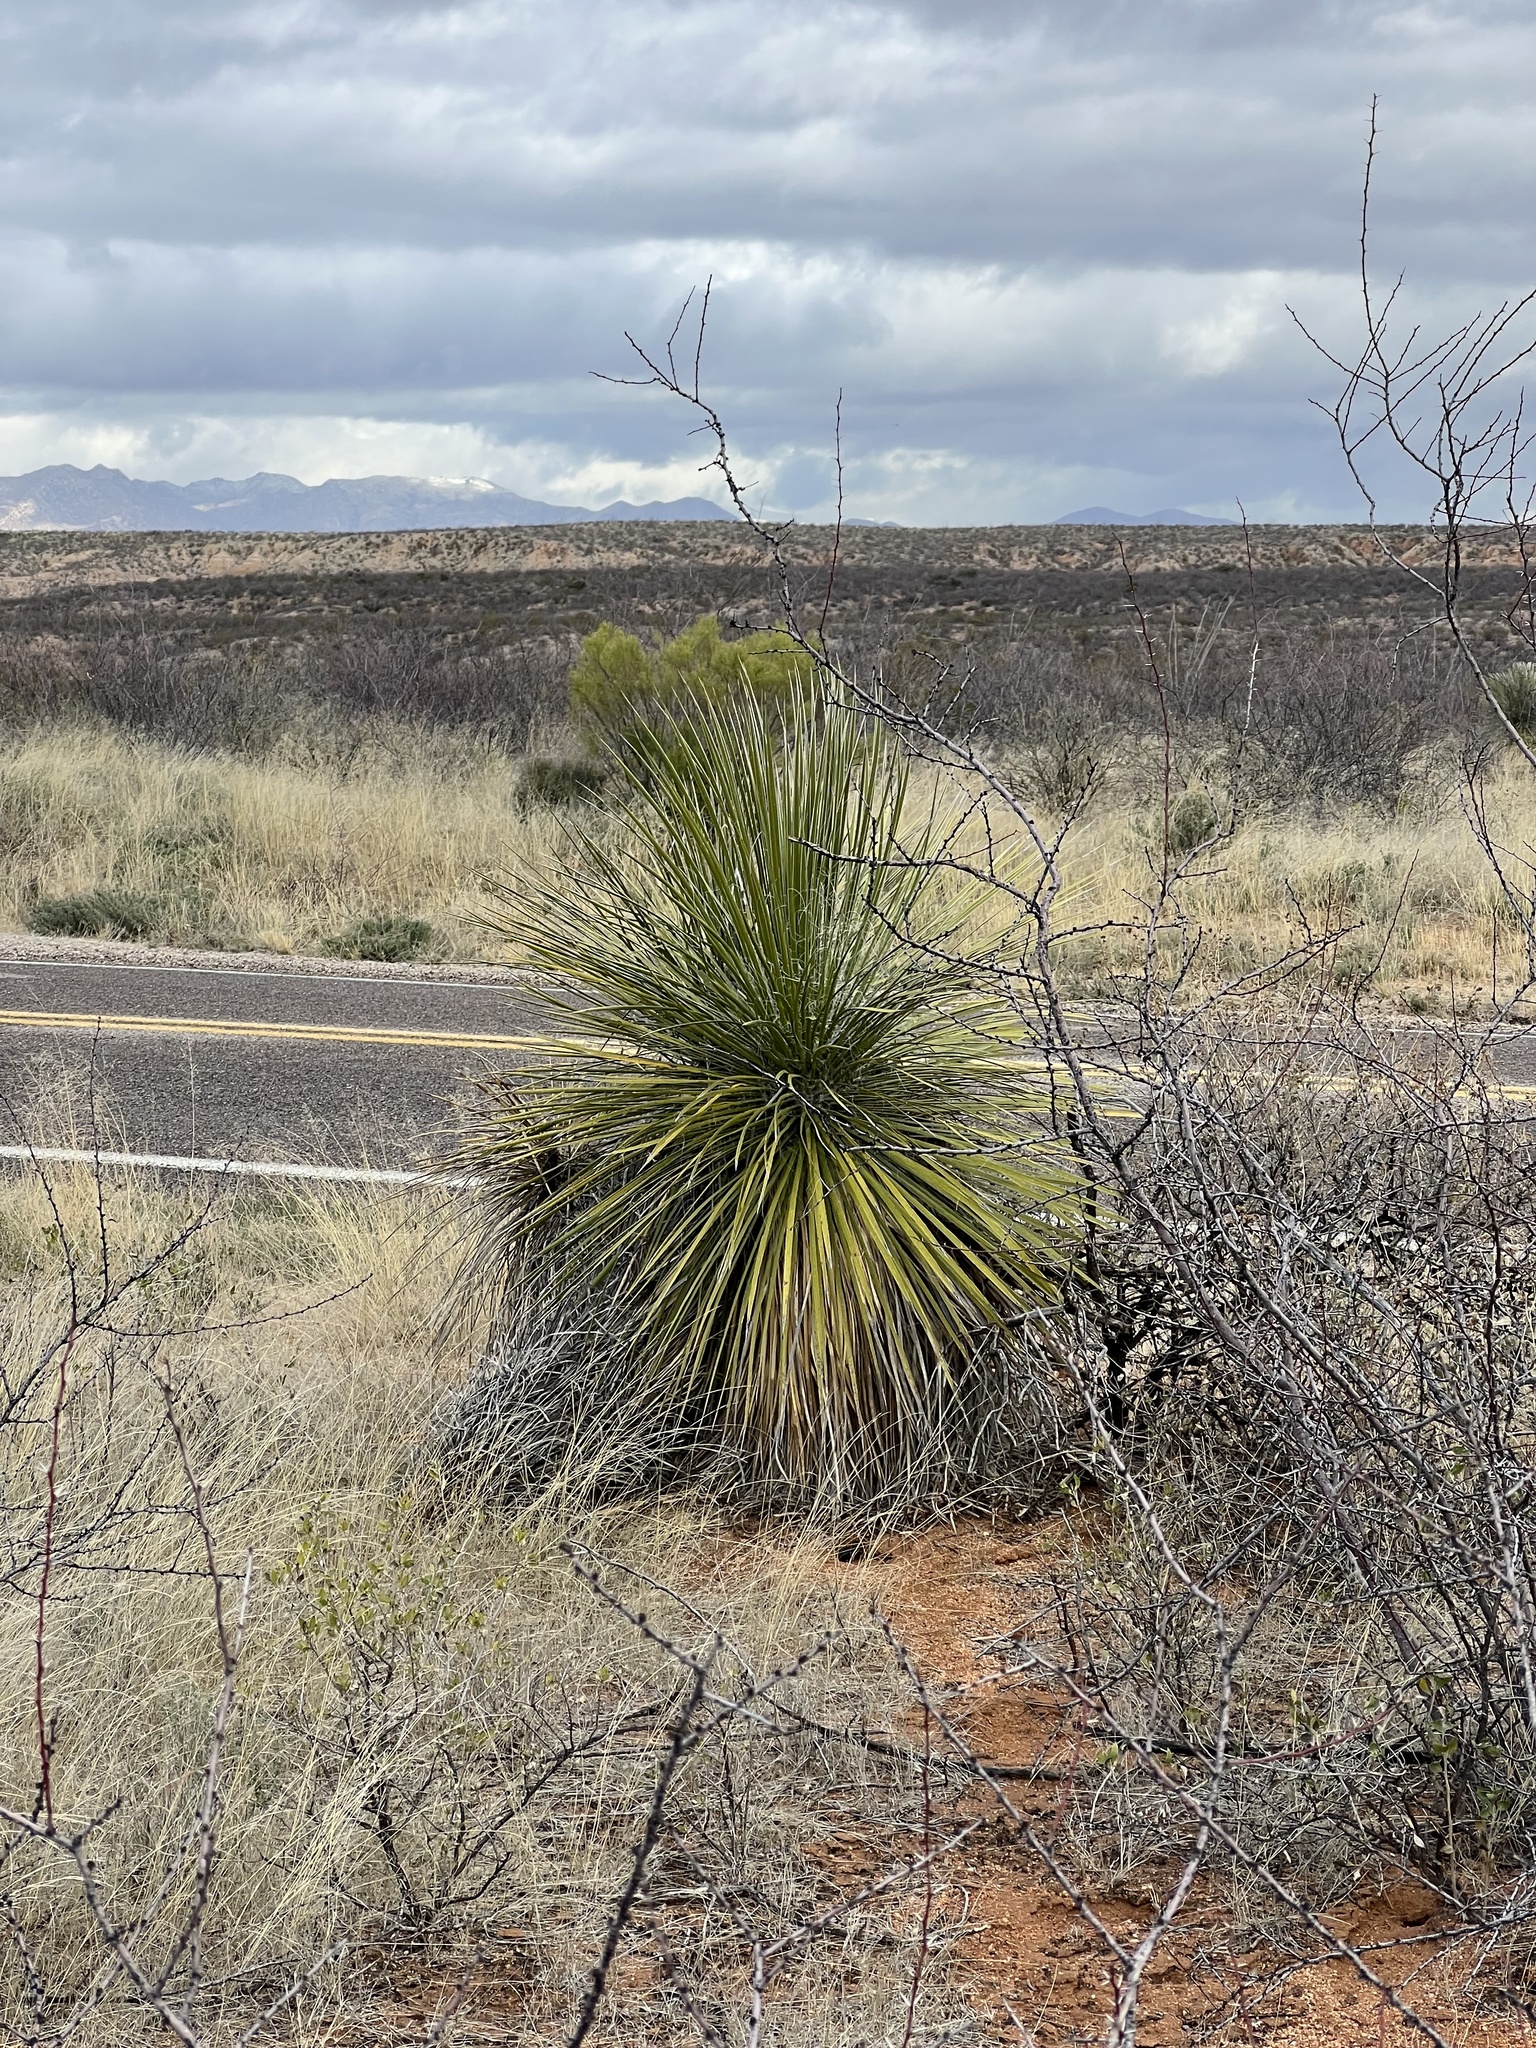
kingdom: Plantae
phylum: Tracheophyta
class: Liliopsida
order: Asparagales
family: Asparagaceae
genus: Yucca
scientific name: Yucca elata
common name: Palmella
